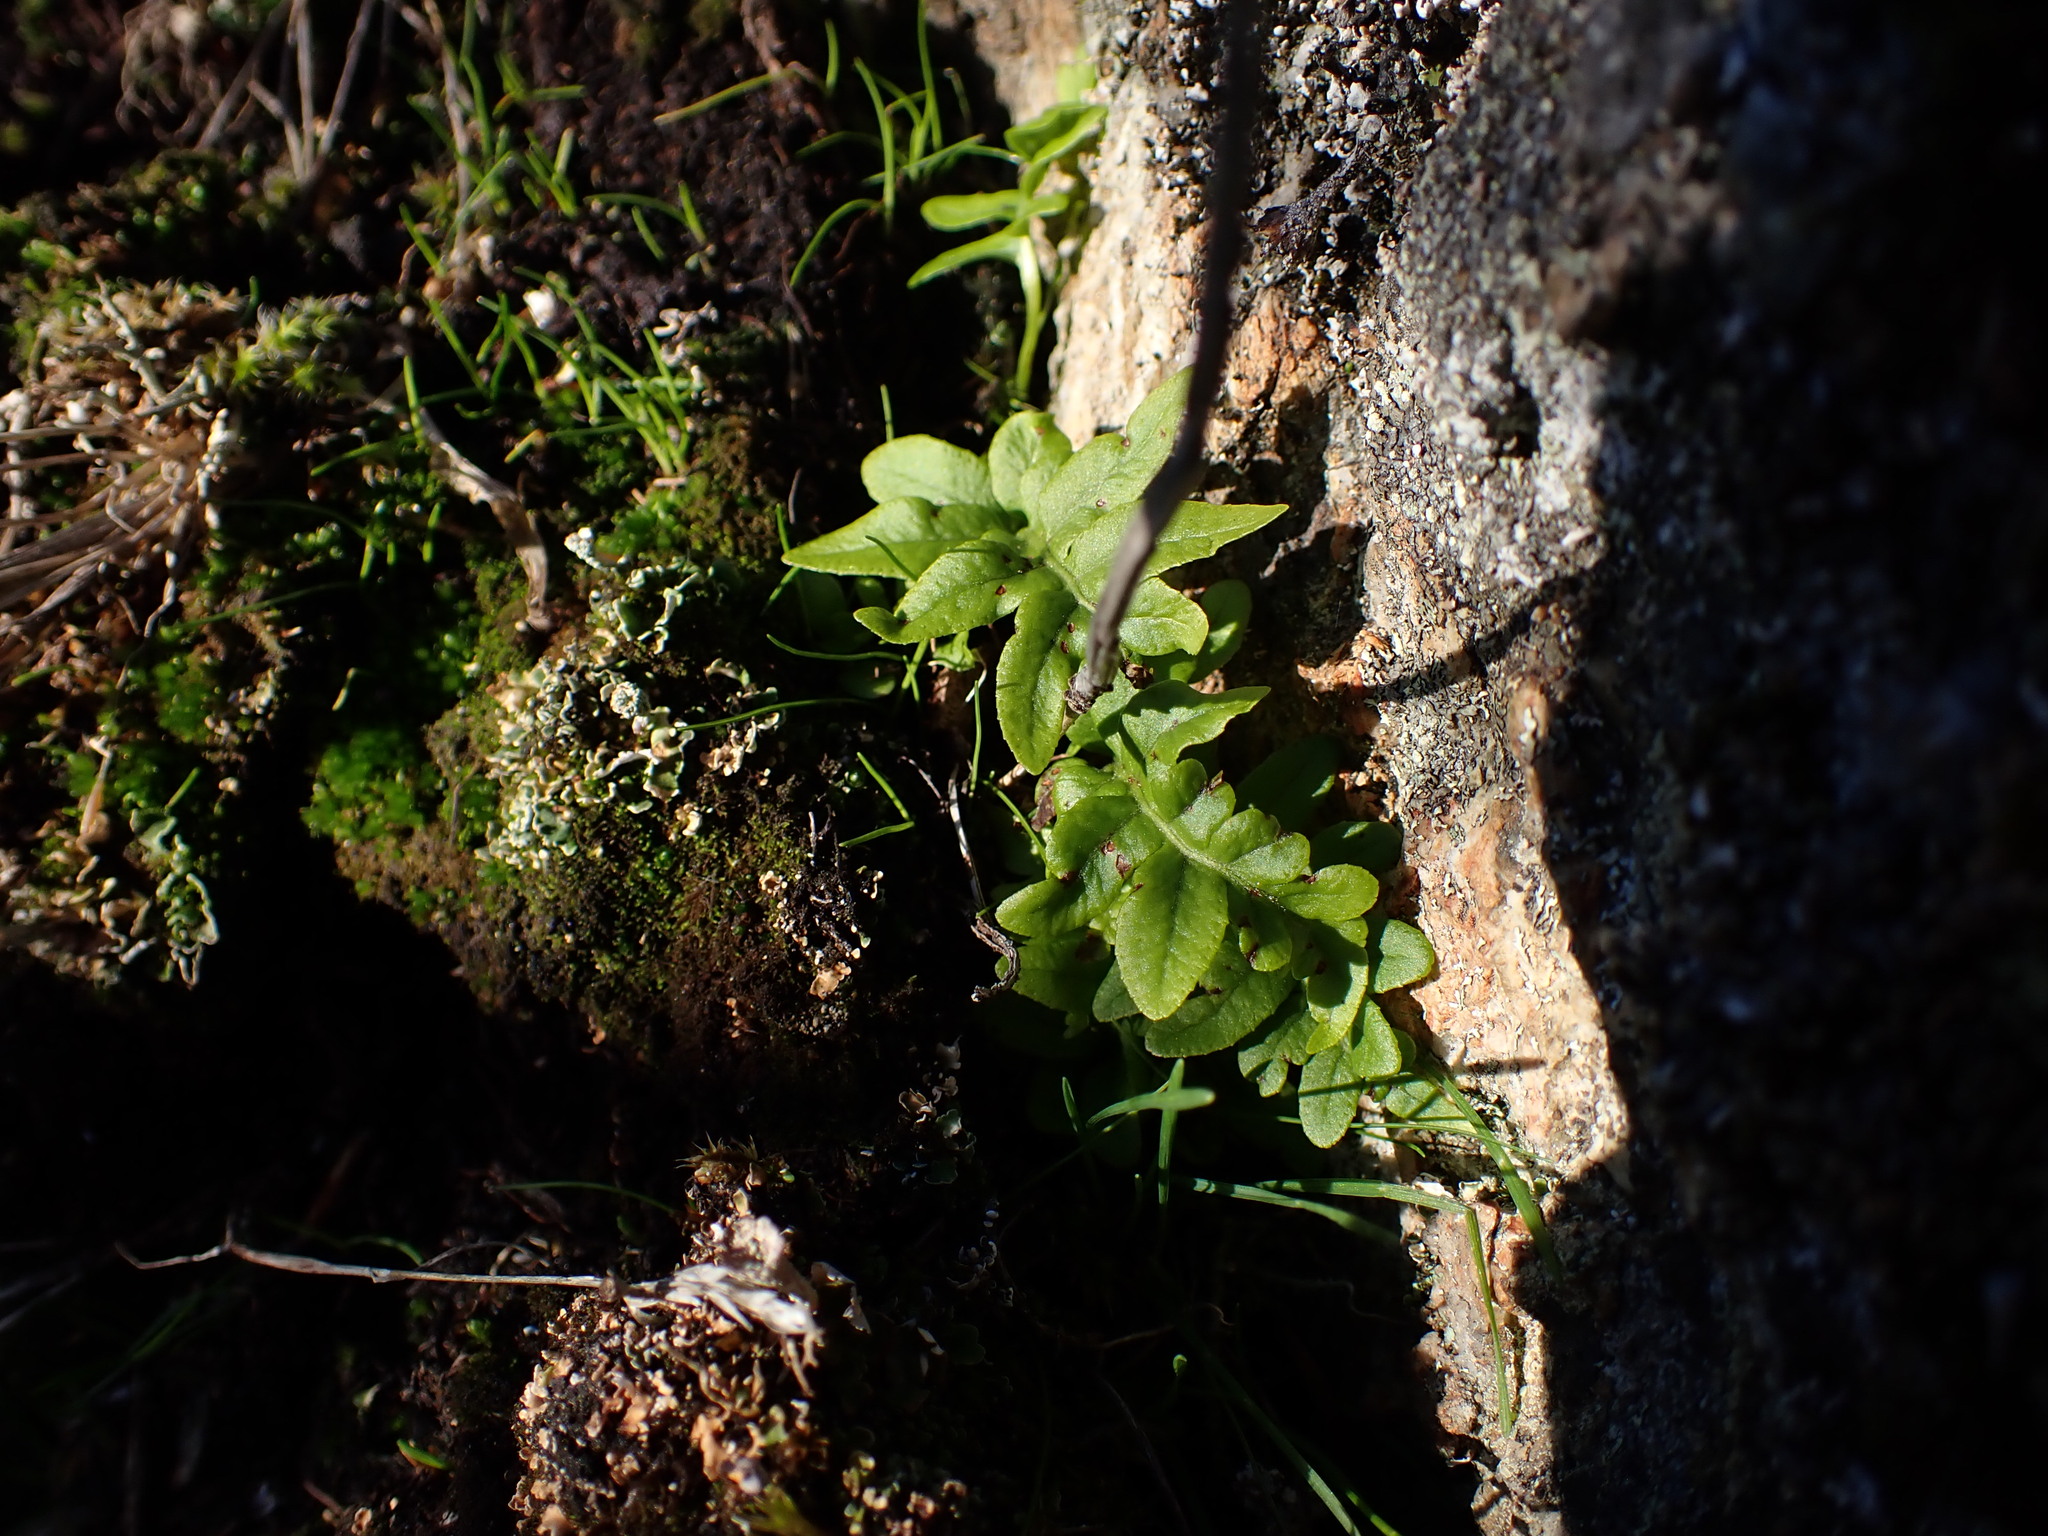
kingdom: Plantae
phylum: Tracheophyta
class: Polypodiopsida
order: Polypodiales
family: Polypodiaceae
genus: Polypodium
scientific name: Polypodium glycyrrhiza
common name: Licorice fern
